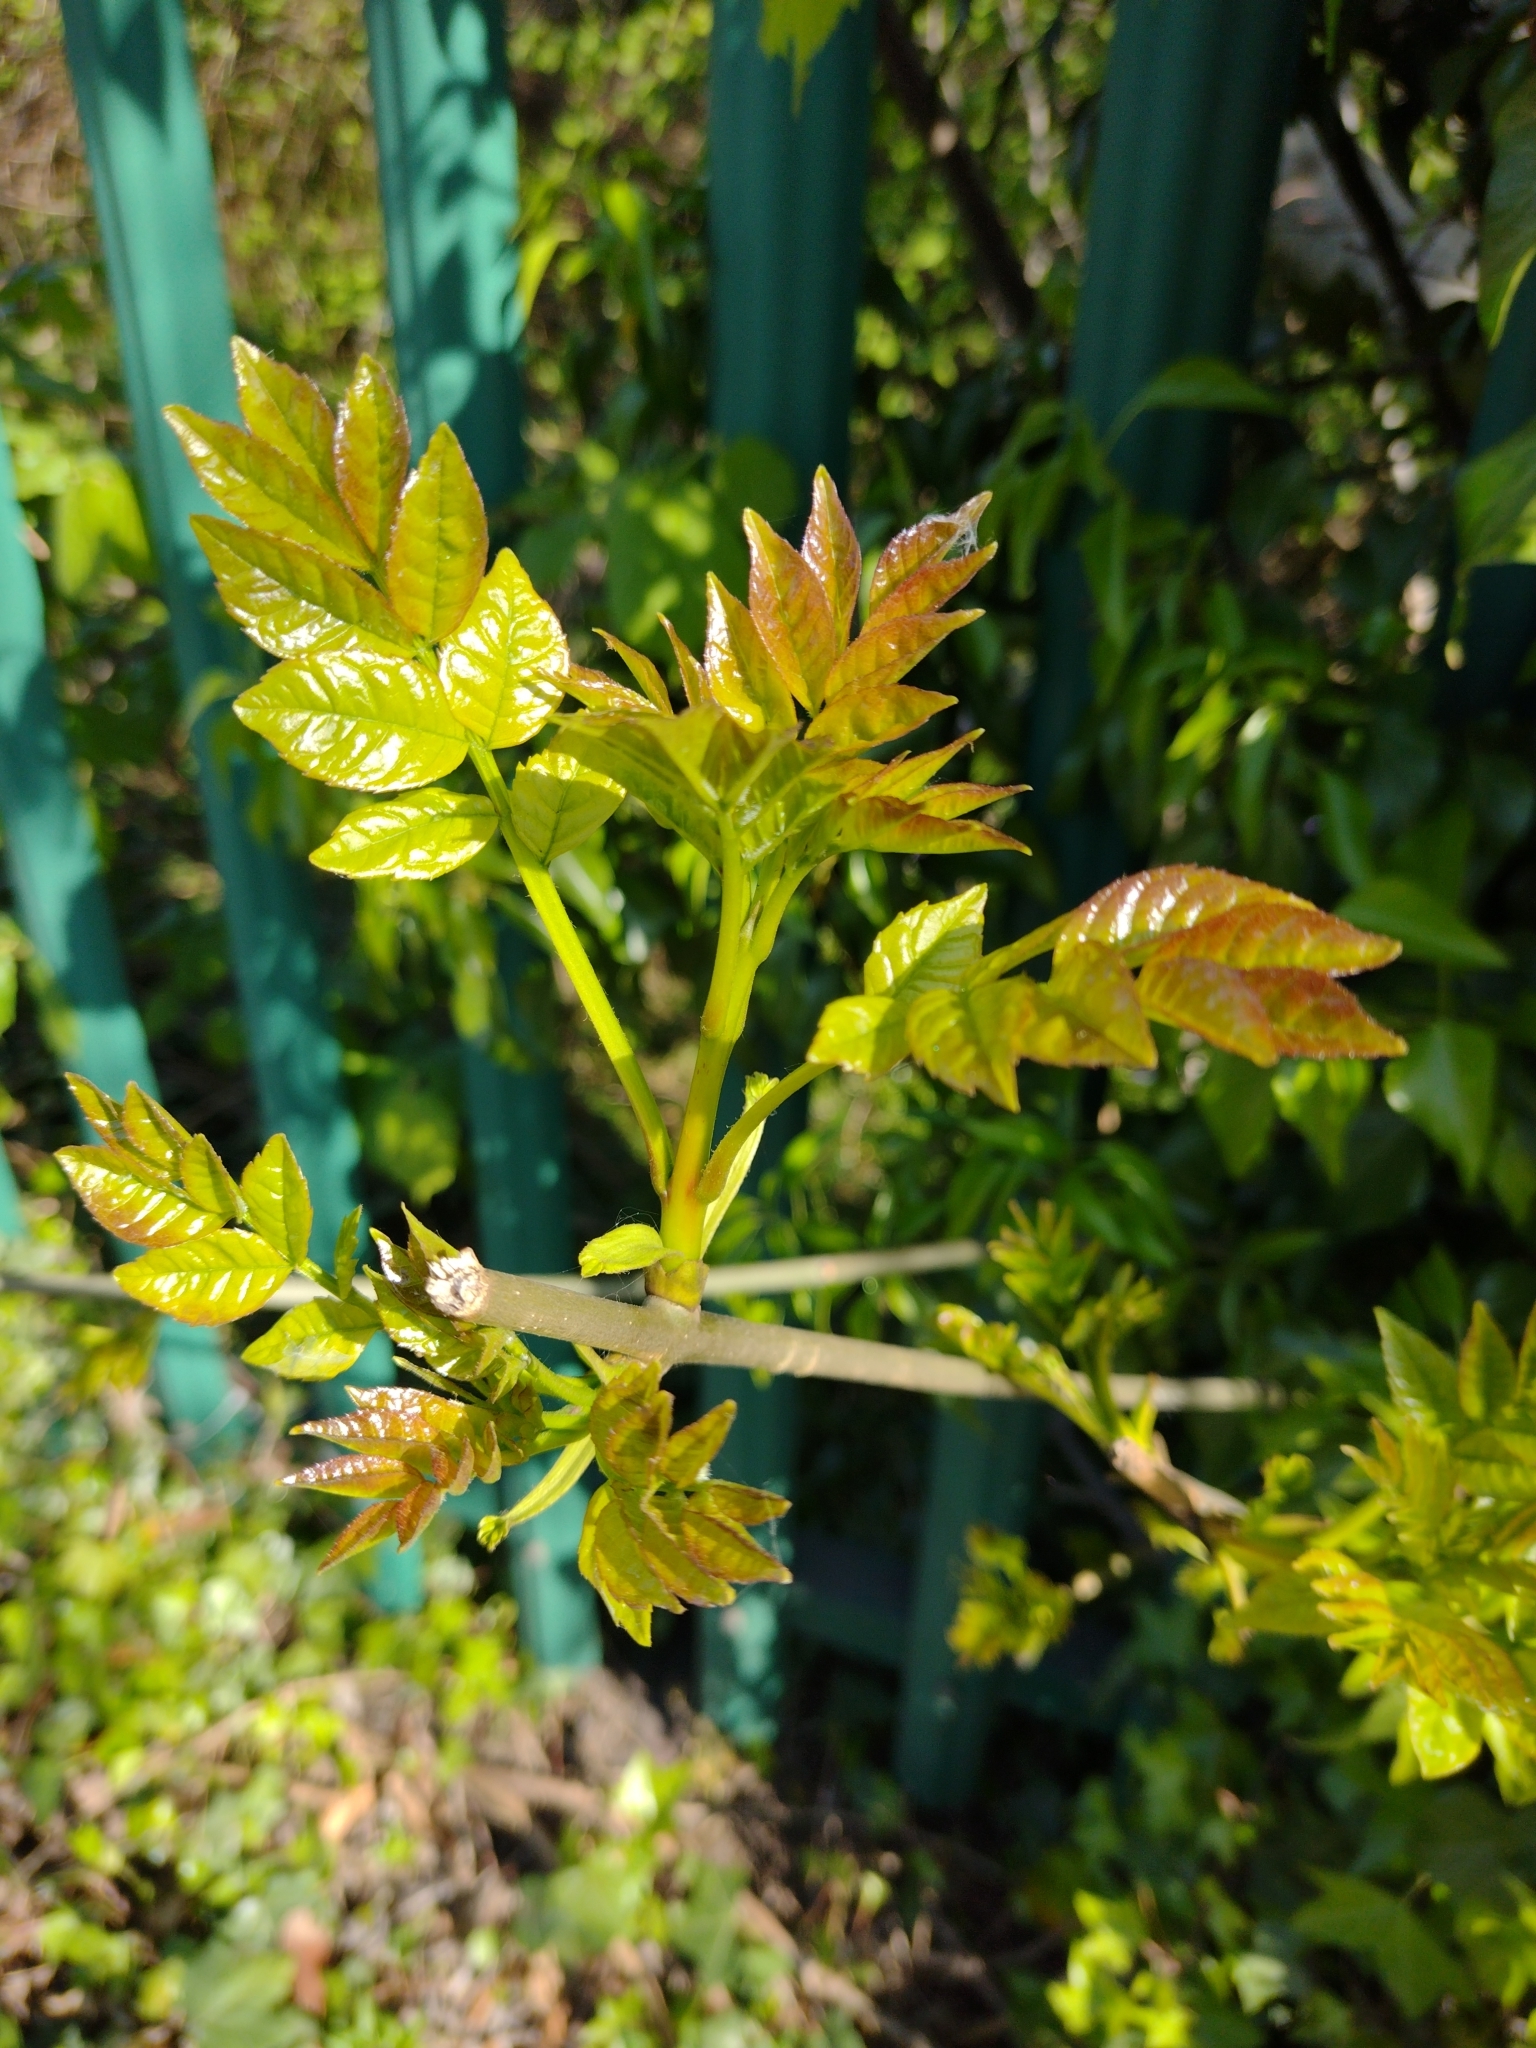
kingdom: Plantae
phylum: Tracheophyta
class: Magnoliopsida
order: Lamiales
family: Oleaceae
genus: Fraxinus
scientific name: Fraxinus excelsior
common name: European ash
